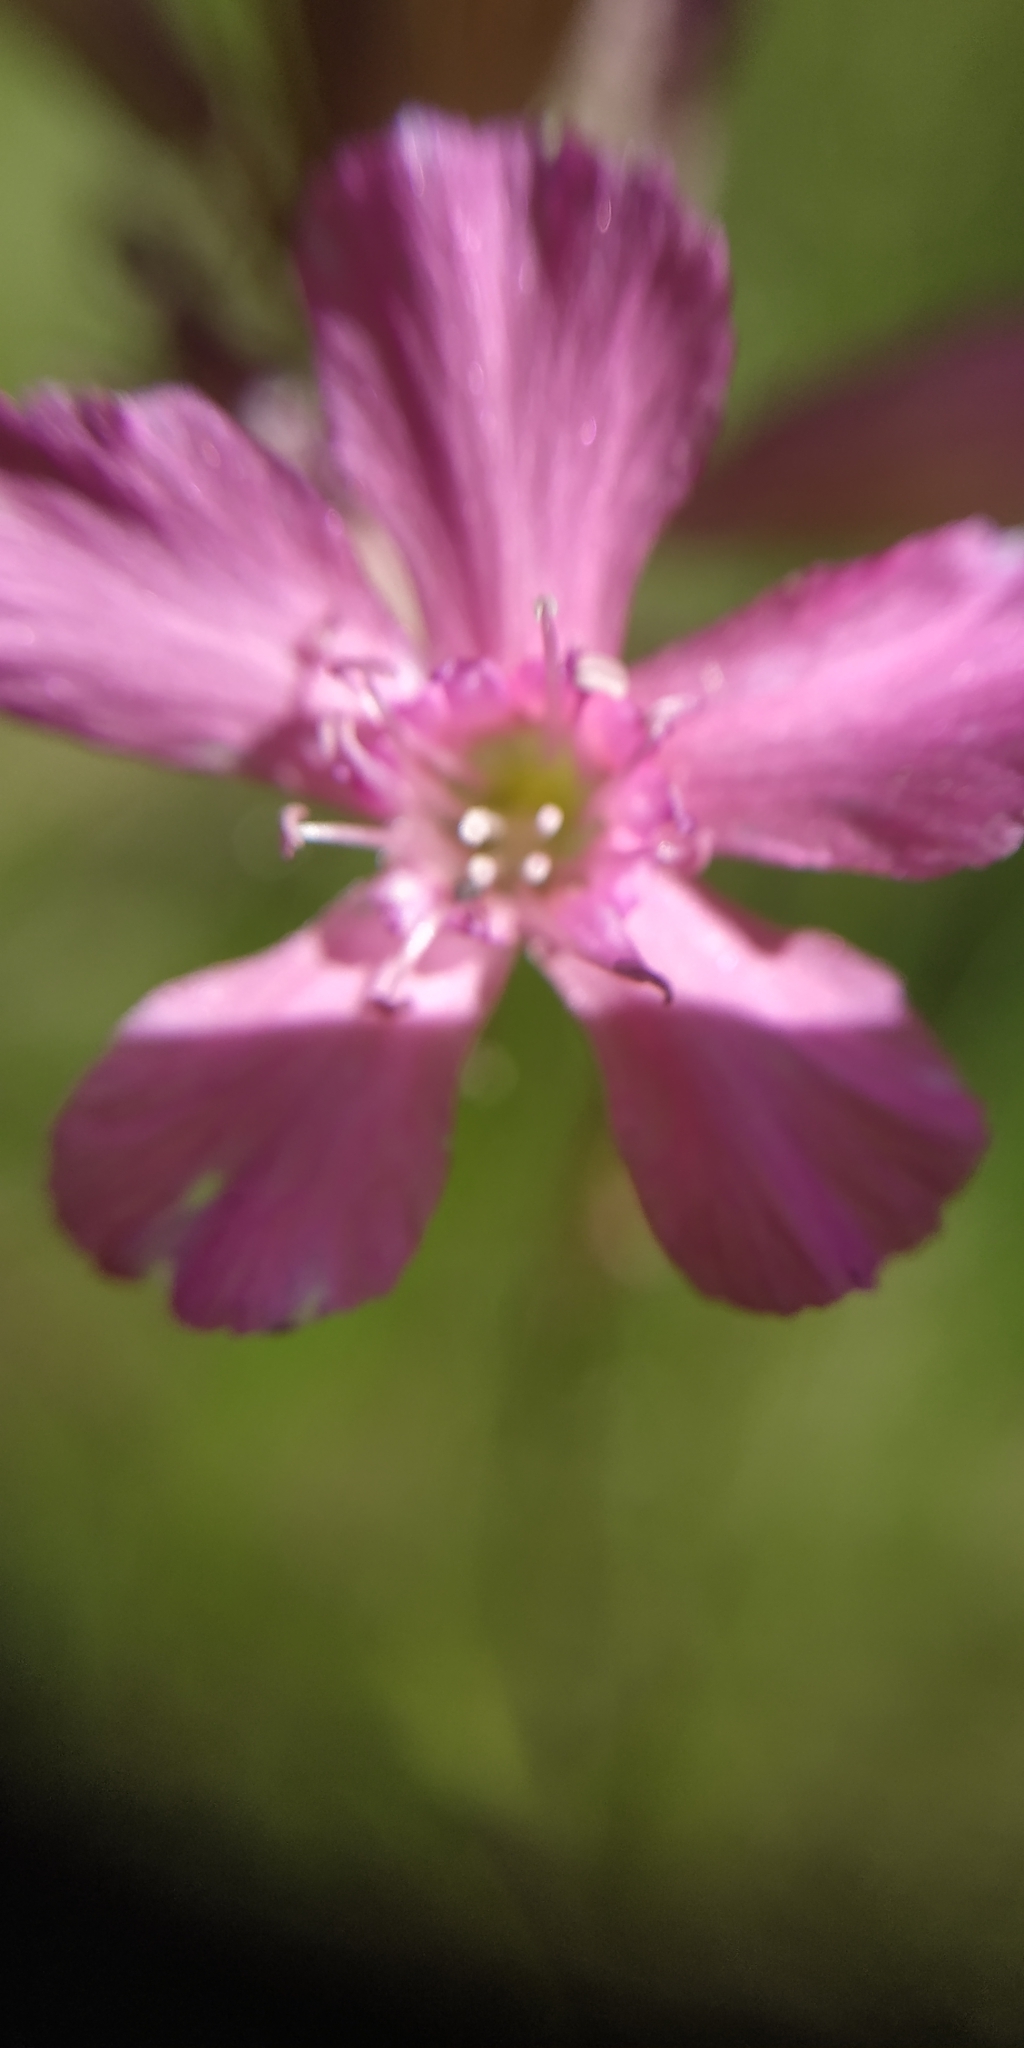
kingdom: Plantae
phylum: Tracheophyta
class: Magnoliopsida
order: Caryophyllales
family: Caryophyllaceae
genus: Viscaria
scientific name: Viscaria vulgaris
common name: Clammy campion
